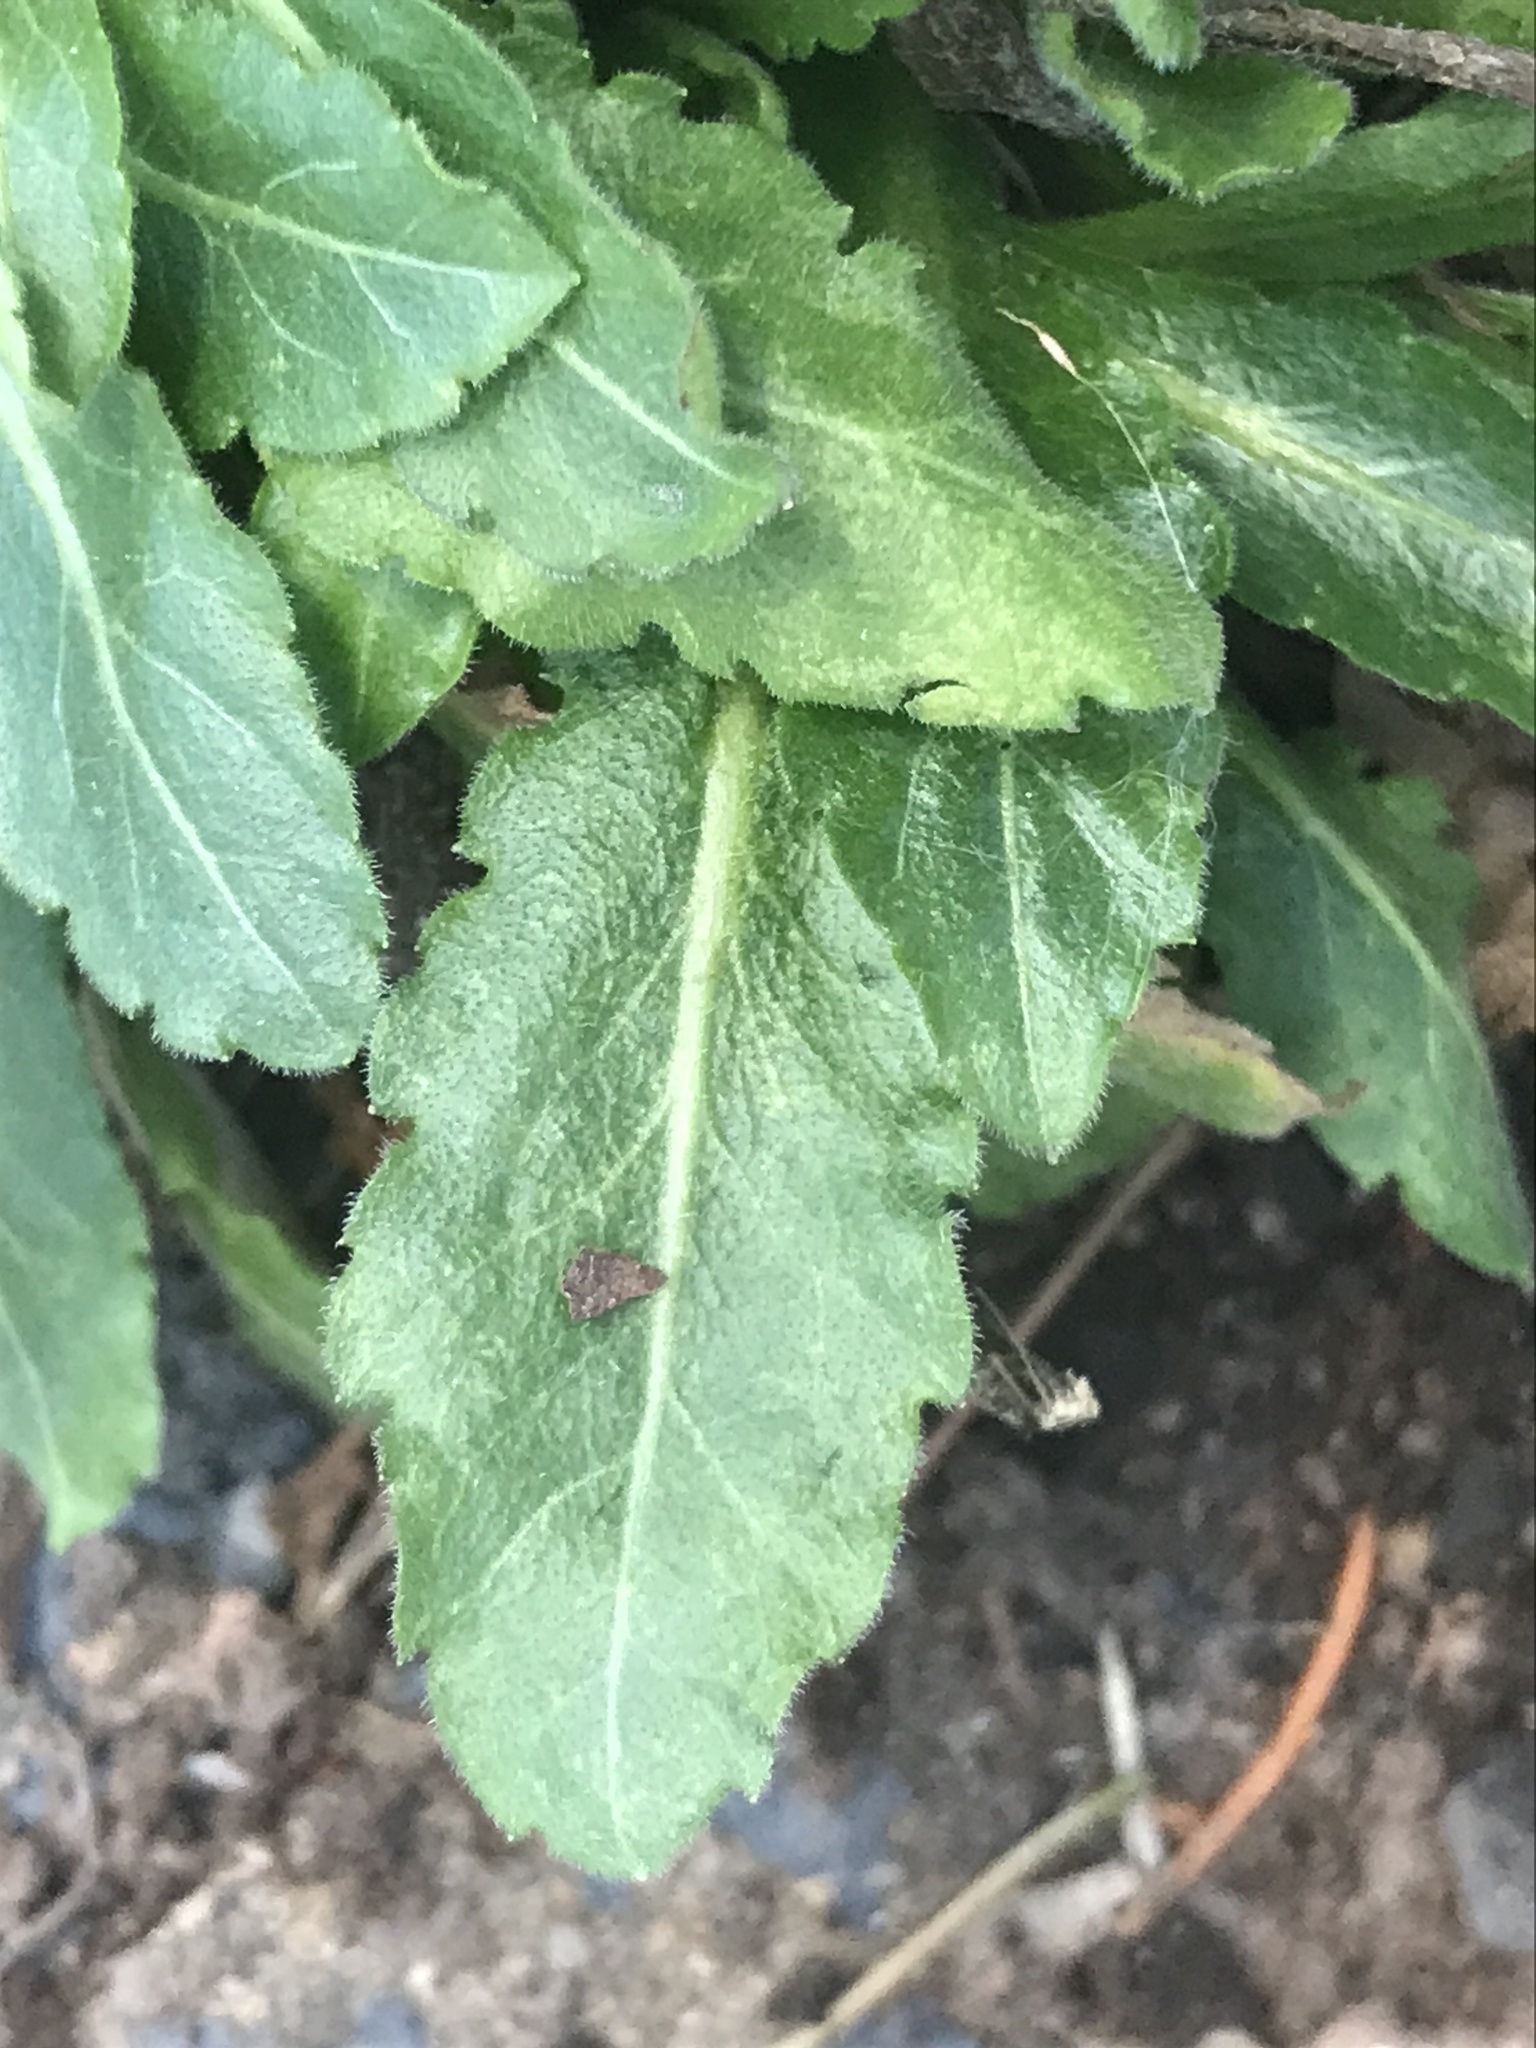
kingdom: Plantae
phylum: Tracheophyta
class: Magnoliopsida
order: Asterales
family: Asteraceae
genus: Erigeron
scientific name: Erigeron philadelphicus
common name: Robin's-plantain
